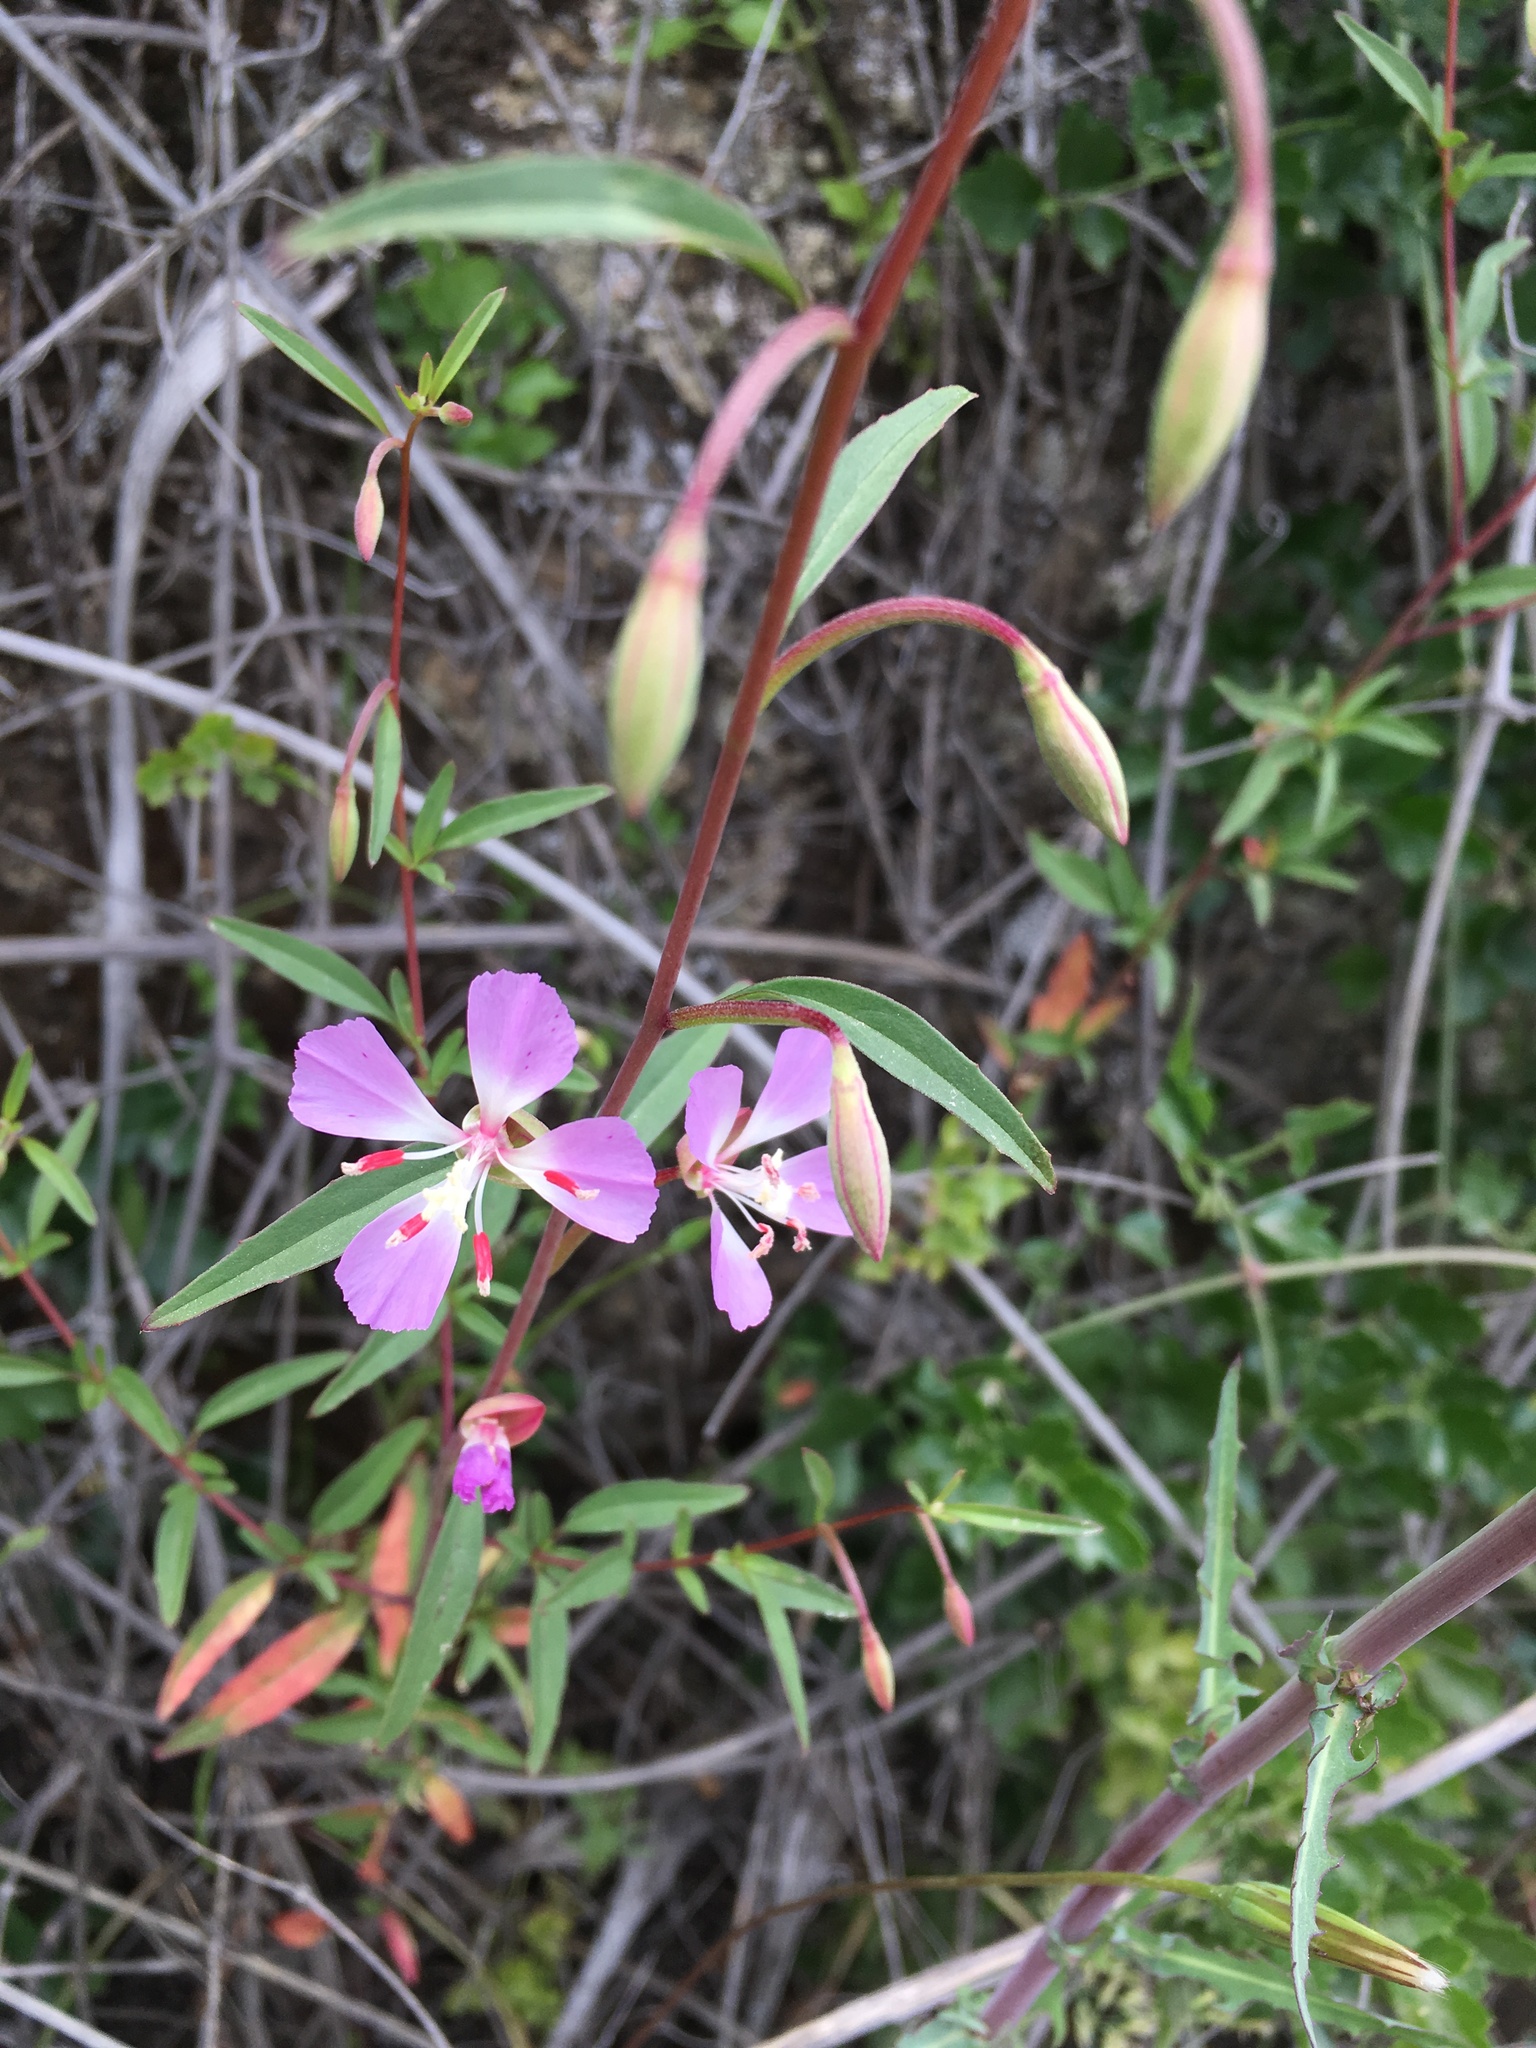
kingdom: Plantae
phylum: Tracheophyta
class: Magnoliopsida
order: Myrtales
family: Onagraceae
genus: Clarkia
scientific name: Clarkia delicata
